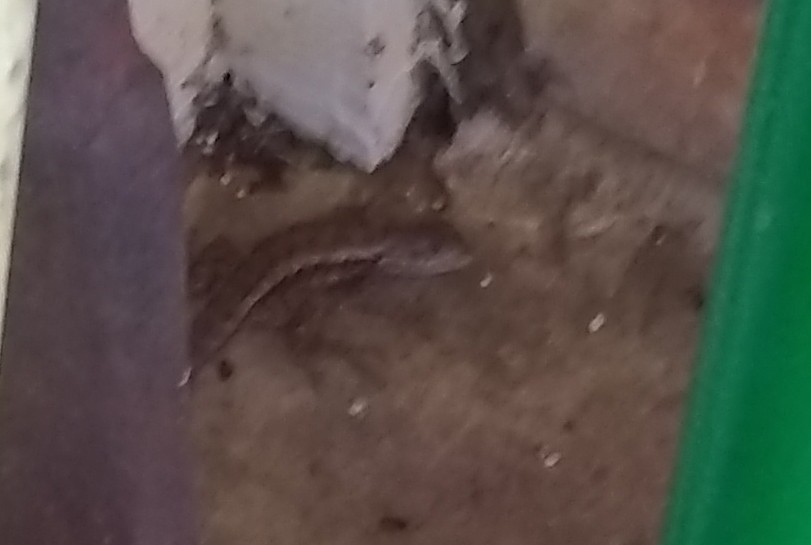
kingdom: Animalia
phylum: Chordata
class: Squamata
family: Phrynosomatidae
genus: Sceloporus
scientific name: Sceloporus olivaceus
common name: Texas spiny lizard
